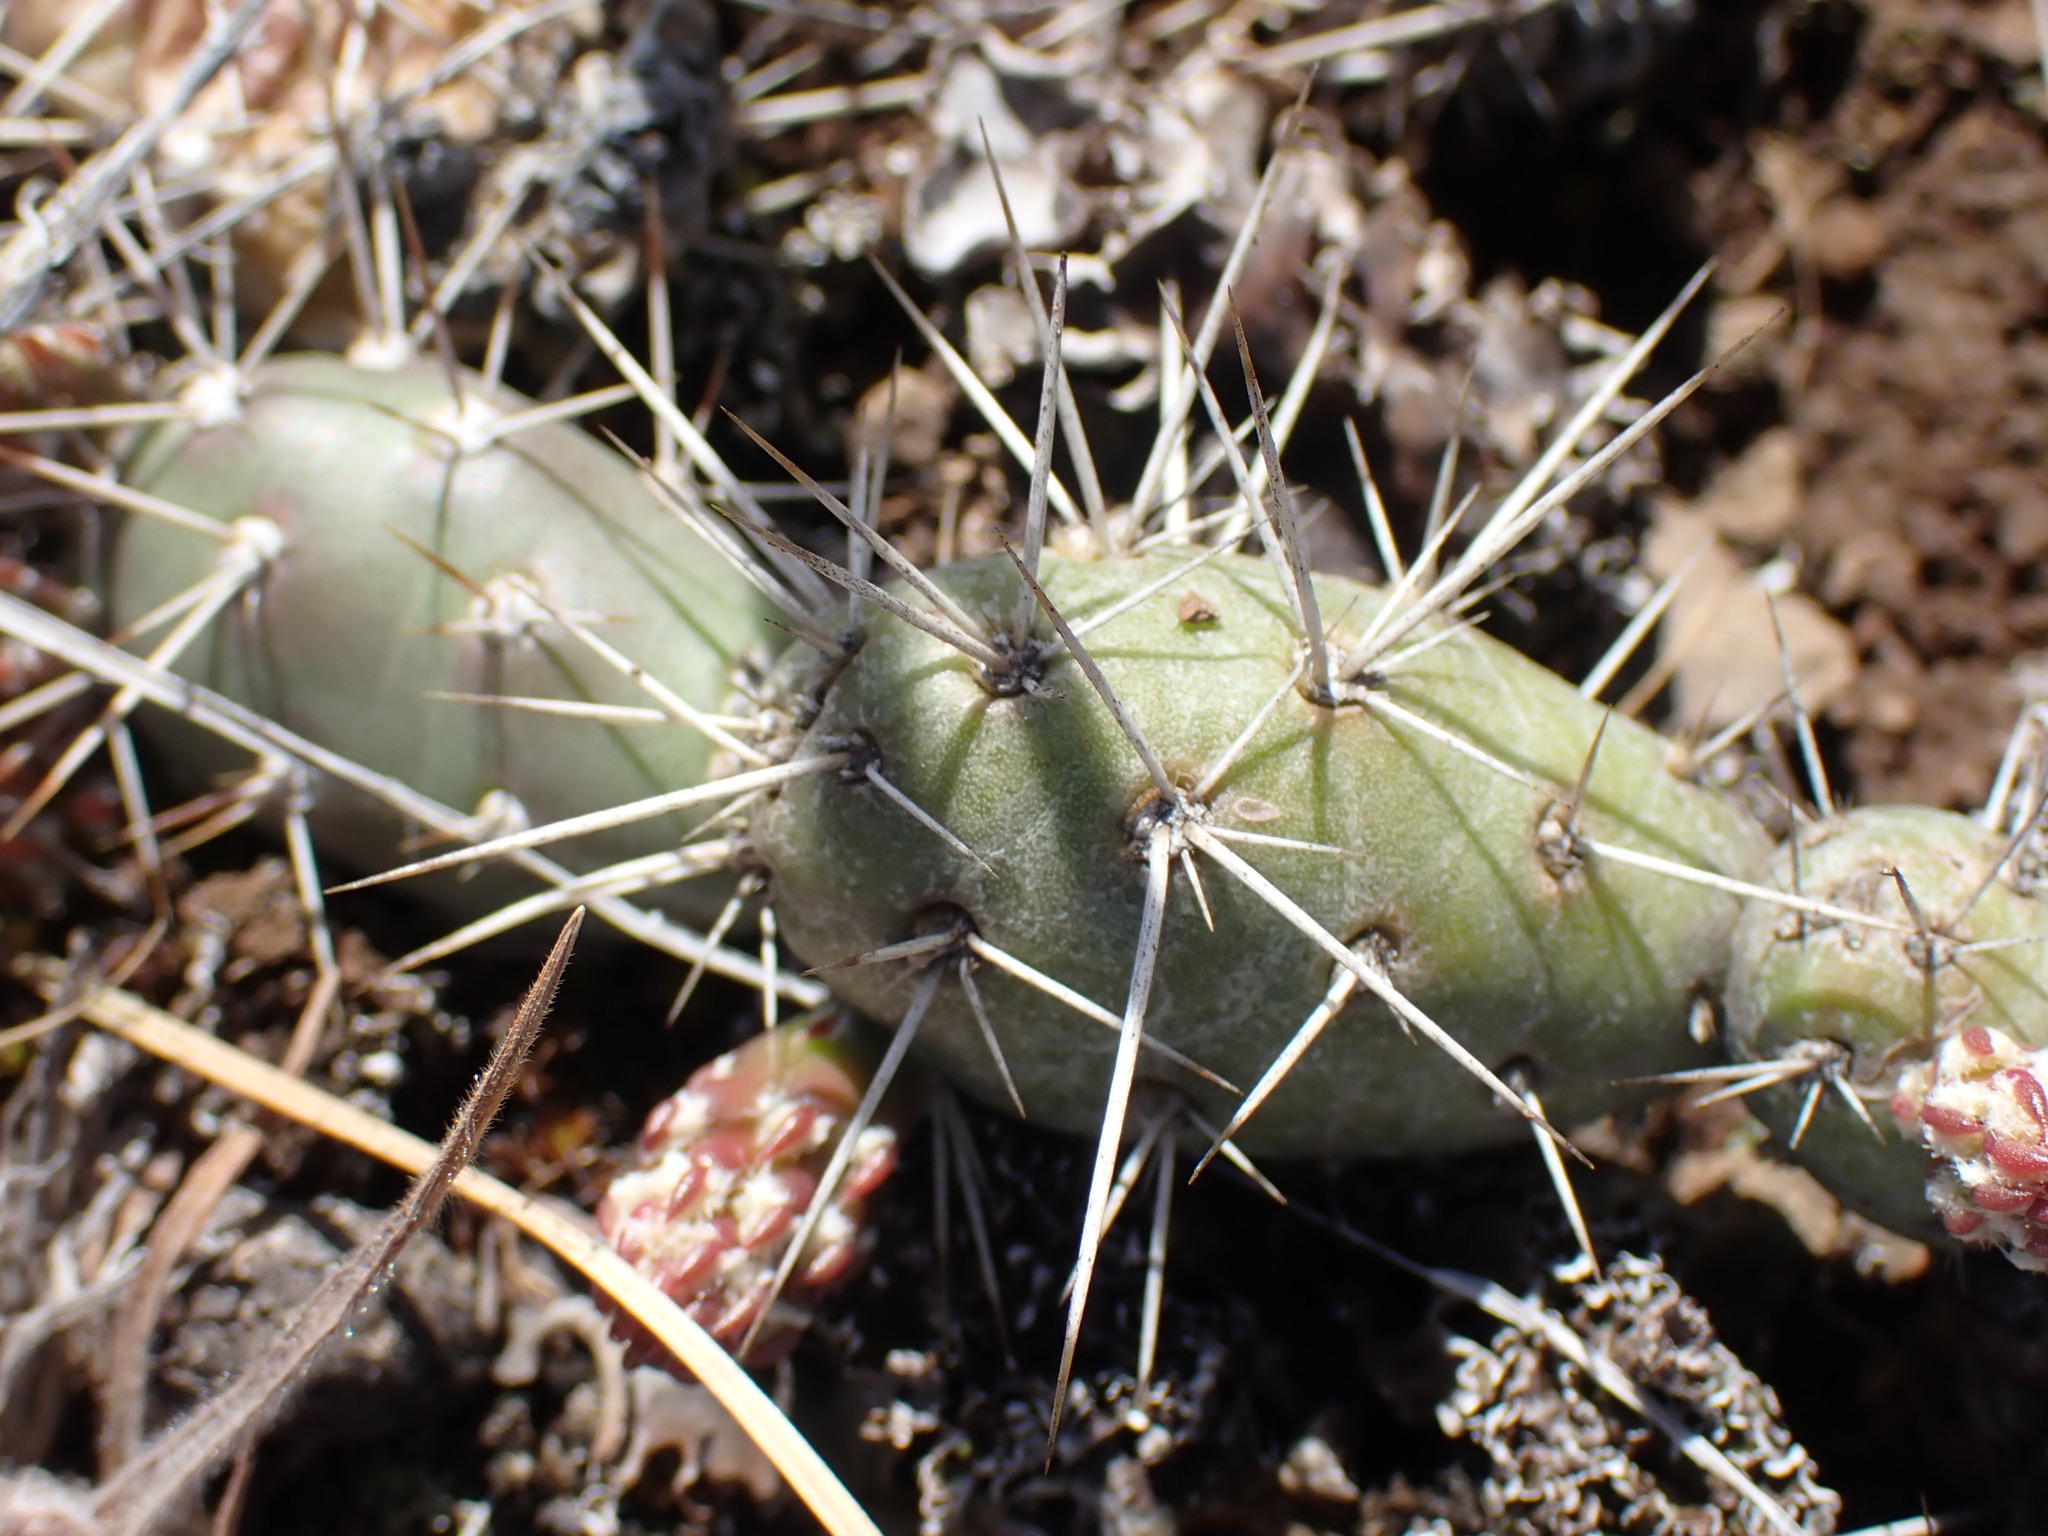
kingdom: Plantae
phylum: Tracheophyta
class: Magnoliopsida
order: Caryophyllales
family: Cactaceae
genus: Opuntia
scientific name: Opuntia fragilis
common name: Brittle cactus
